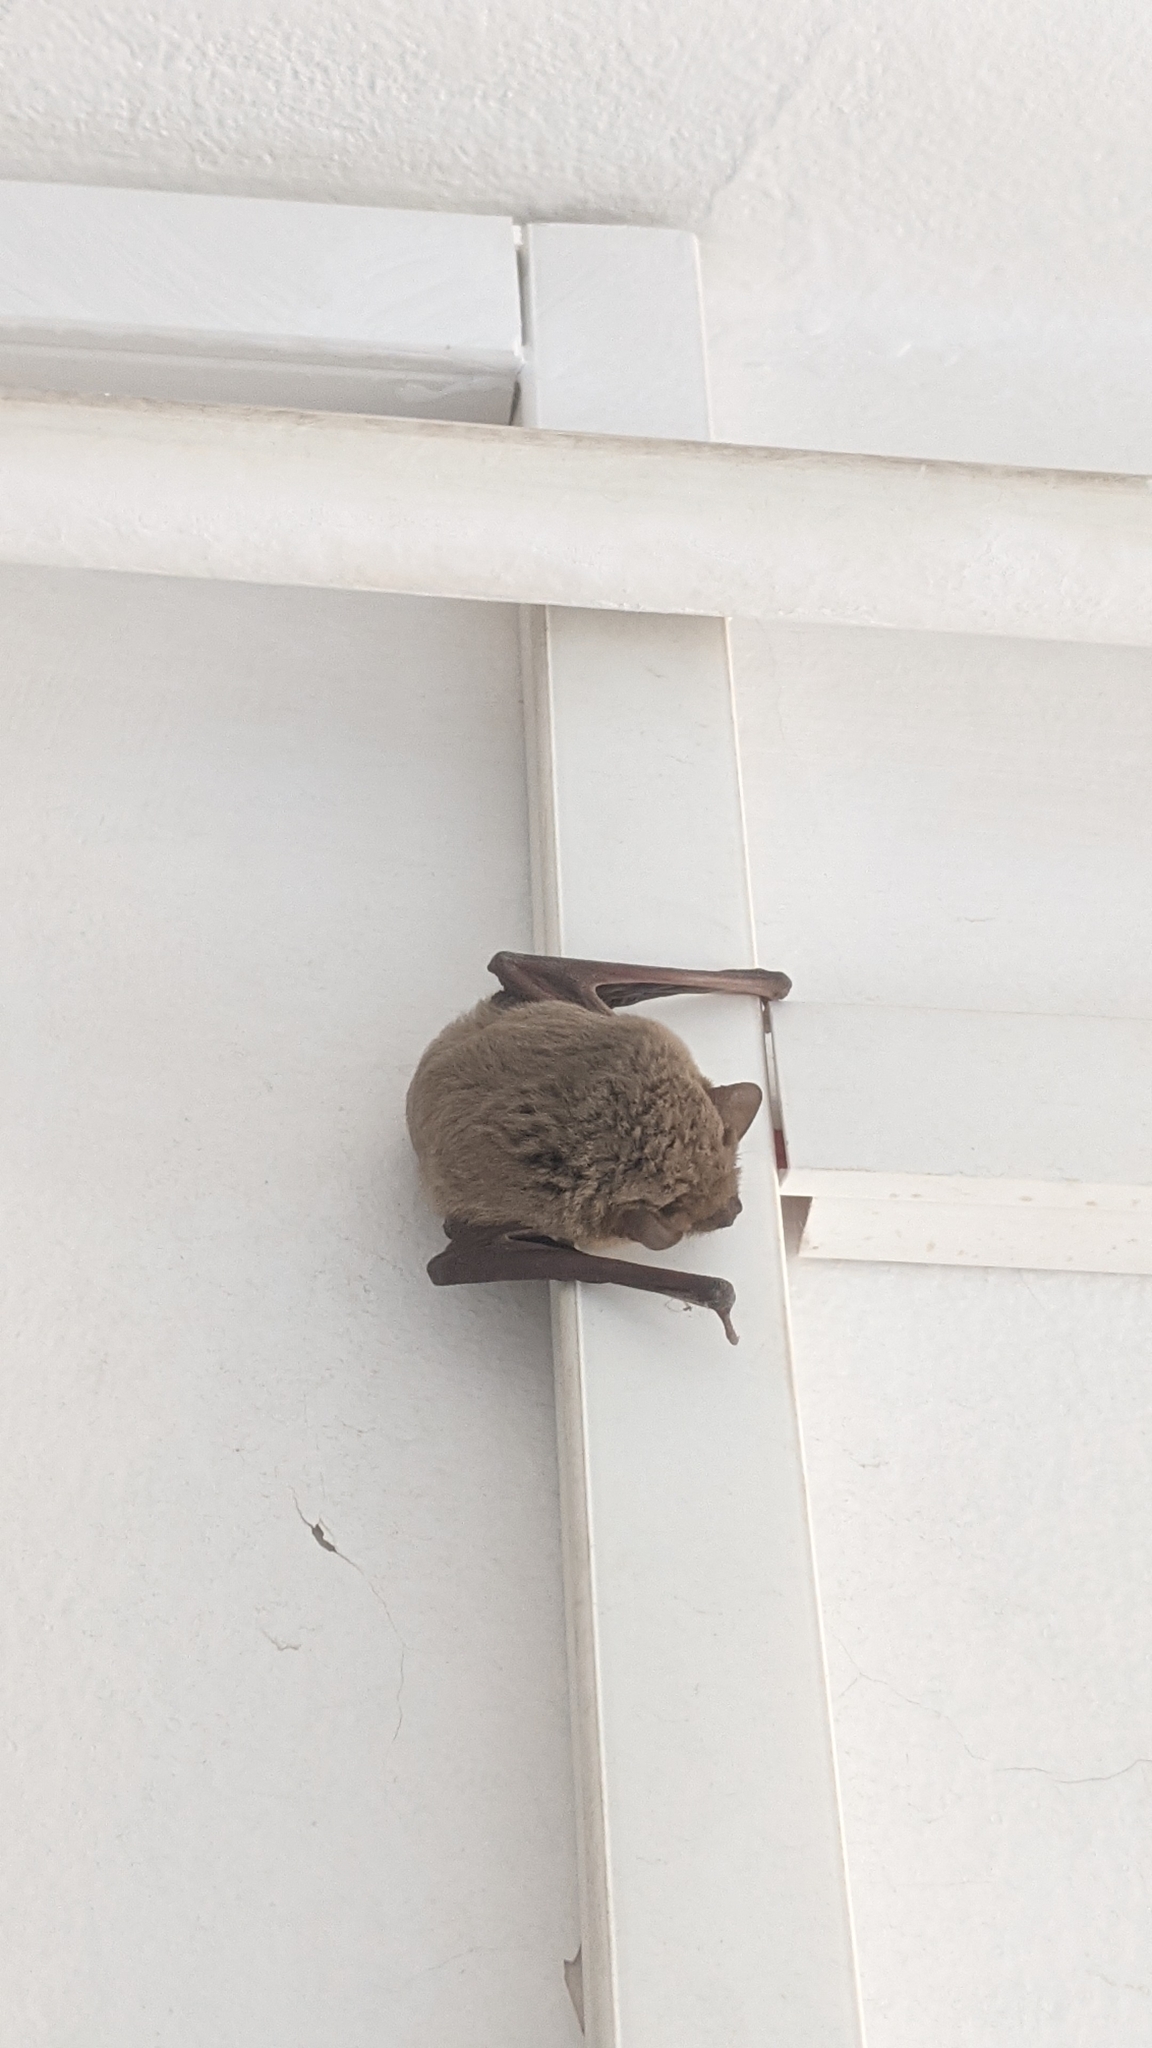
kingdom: Animalia
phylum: Chordata
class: Mammalia
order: Chiroptera
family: Vespertilionidae
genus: Pipistrellus
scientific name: Pipistrellus kuhlii
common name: Kuhl's pipistrelle
